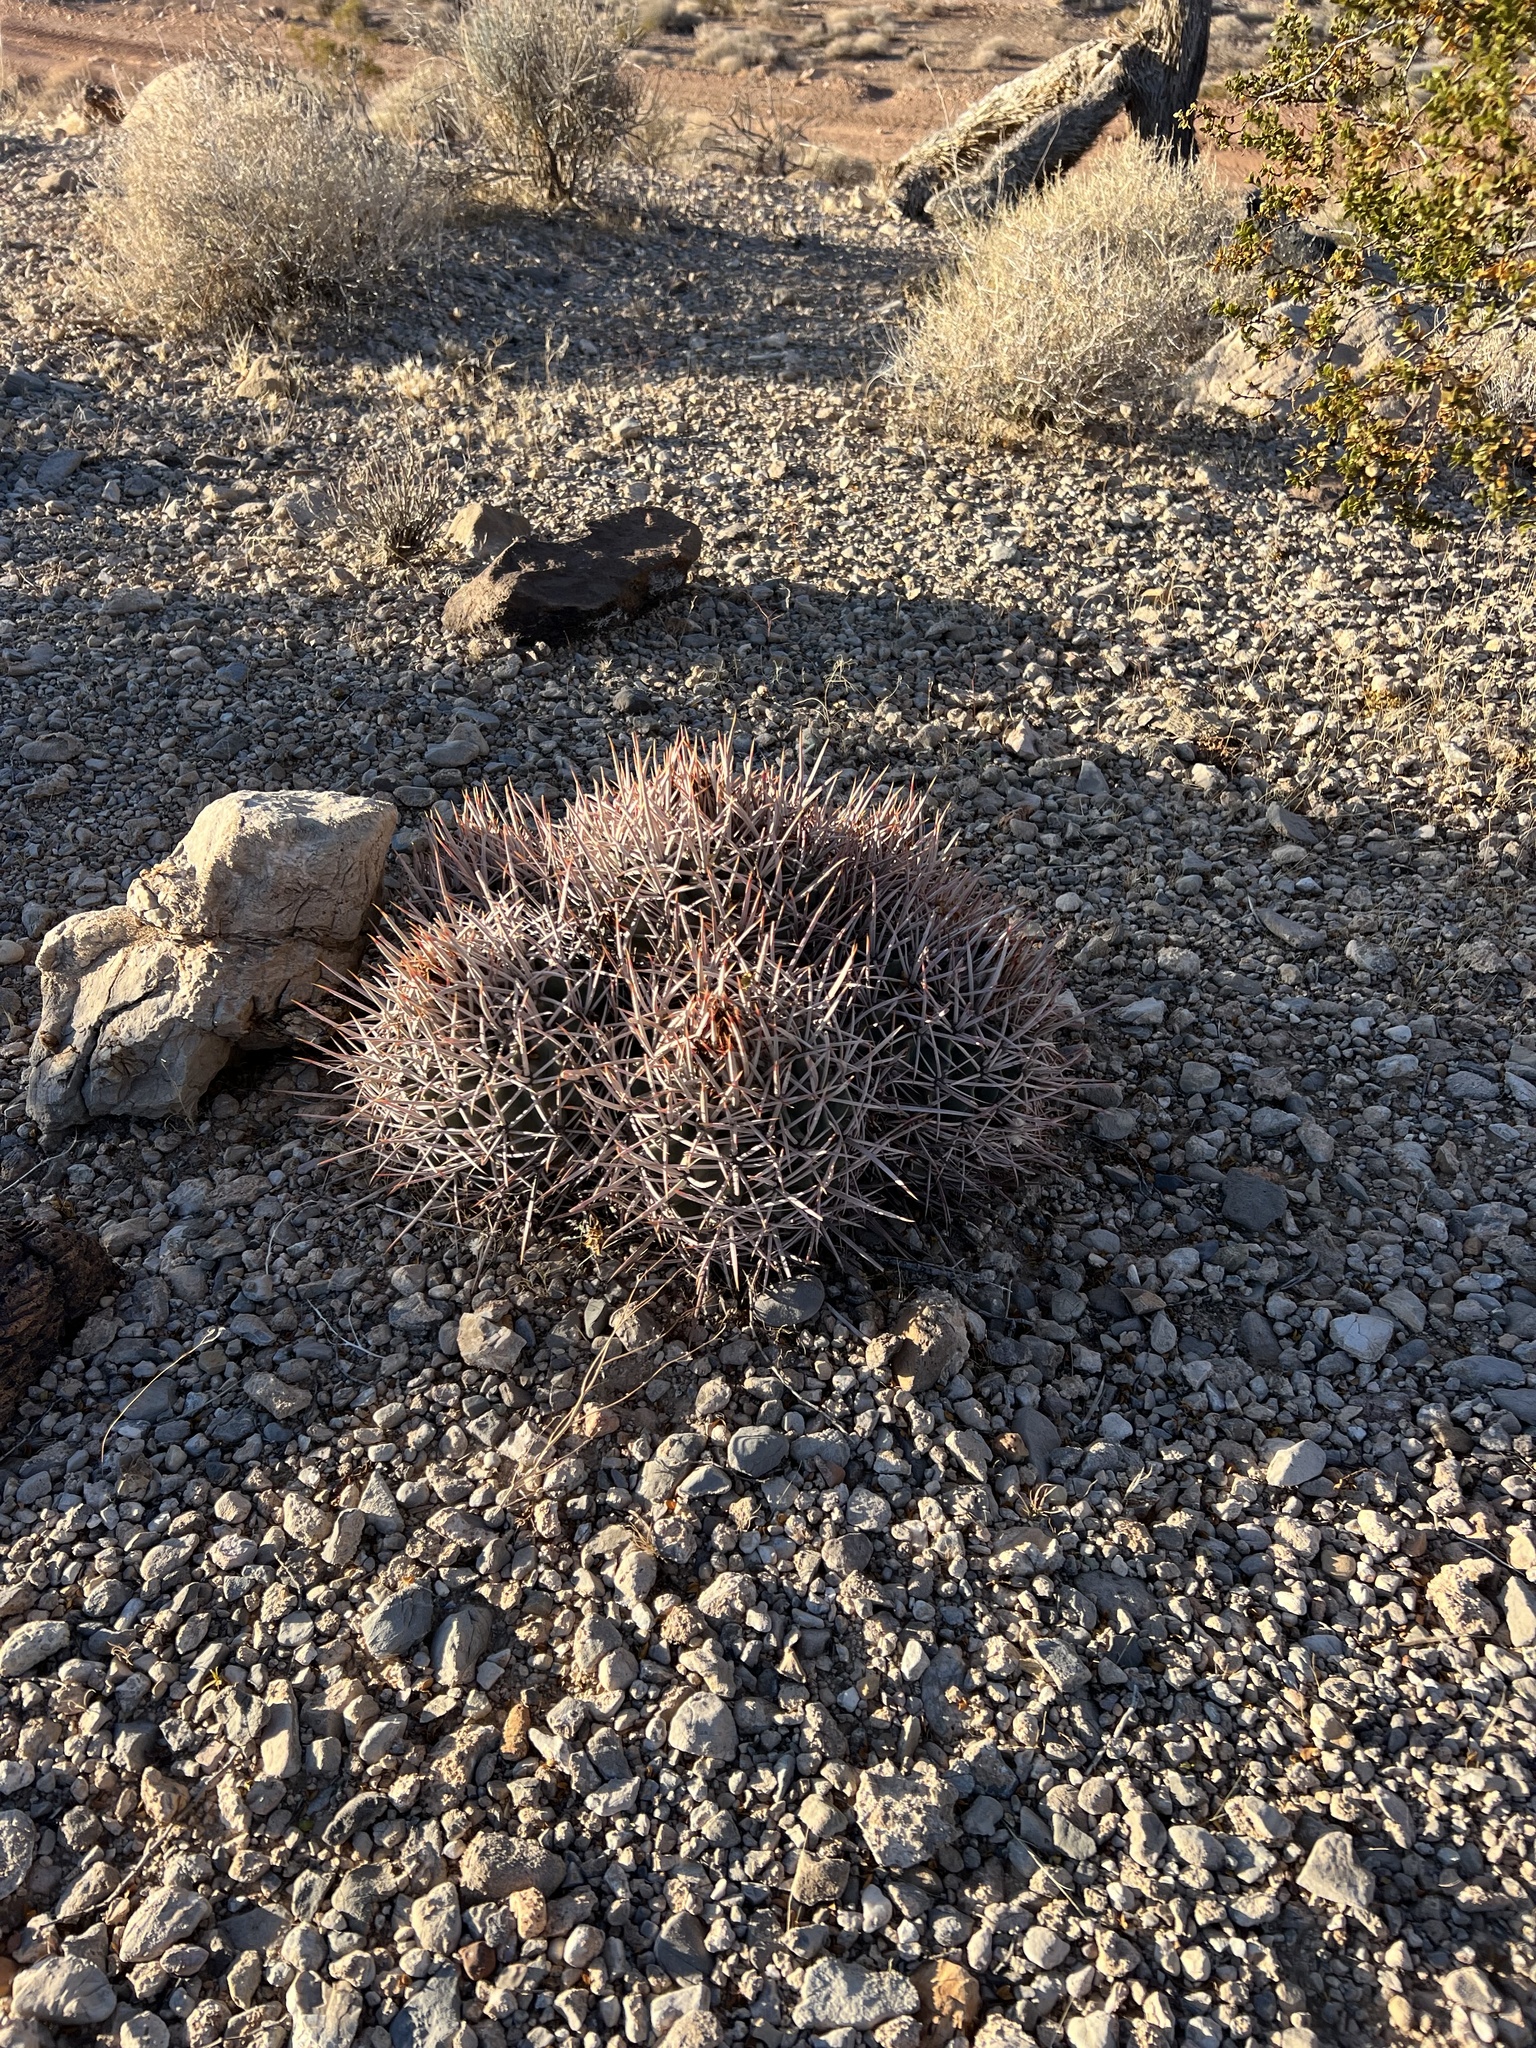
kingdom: Plantae
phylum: Tracheophyta
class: Magnoliopsida
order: Caryophyllales
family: Cactaceae
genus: Echinocactus
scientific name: Echinocactus polycephalus
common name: Cottontop cactus
